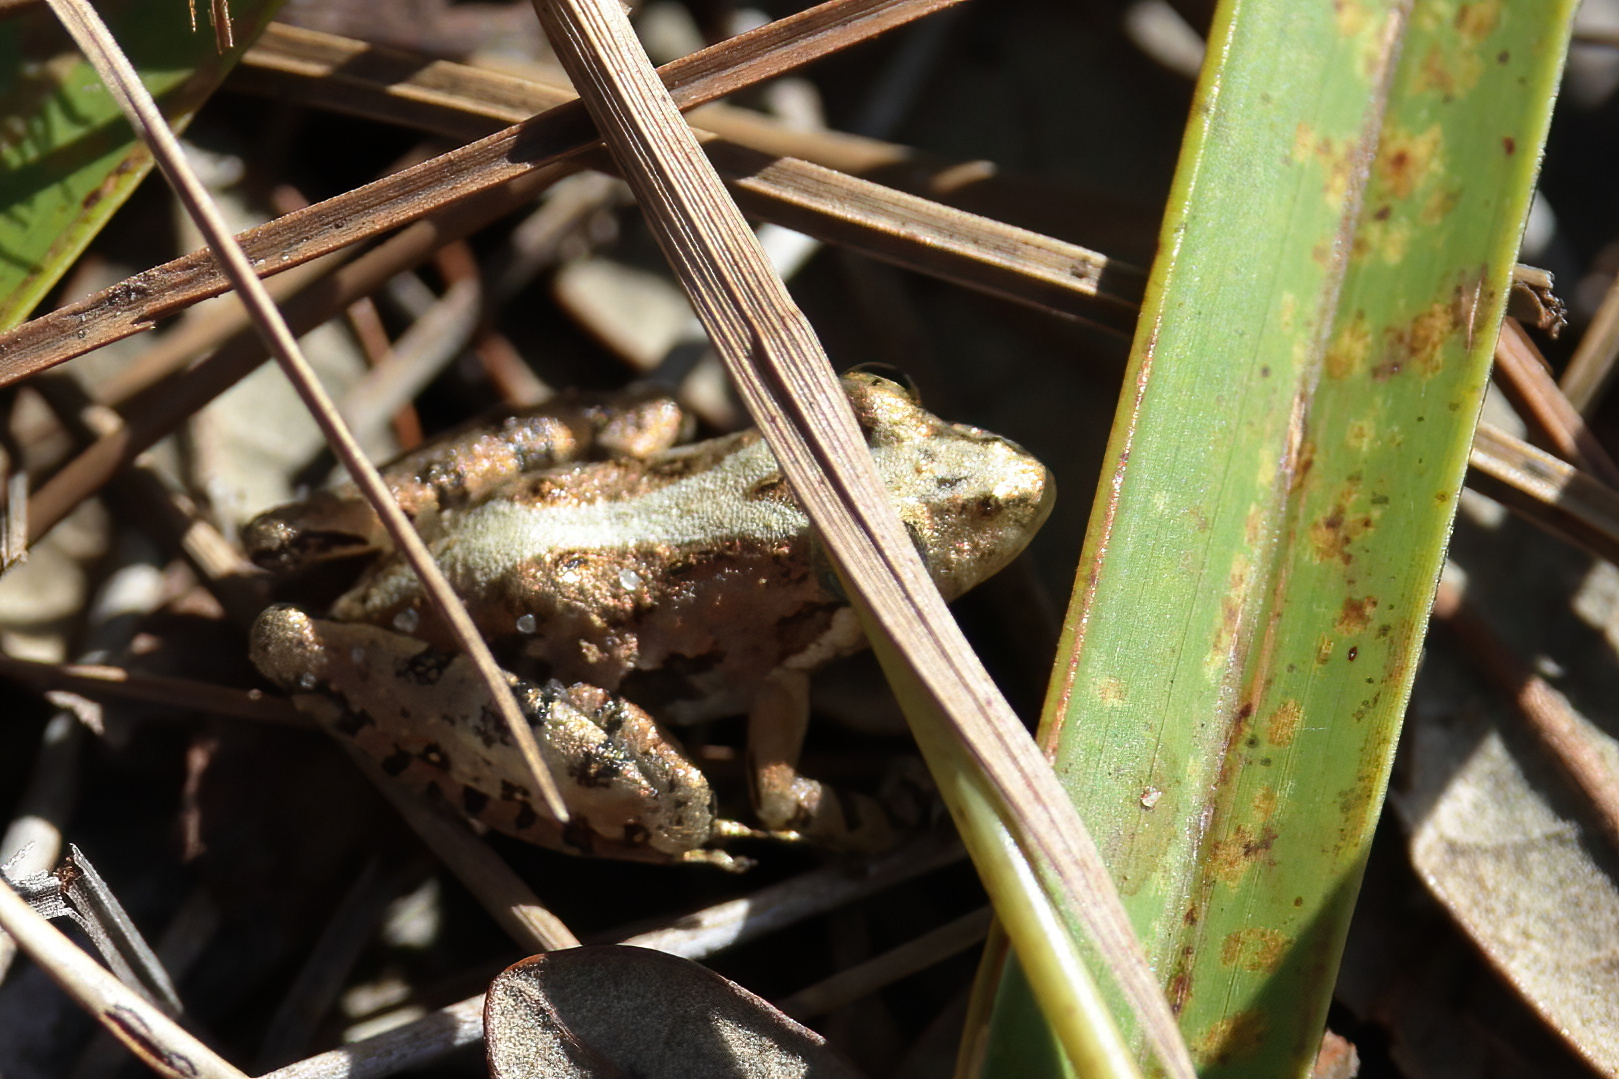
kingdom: Animalia
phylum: Chordata
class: Amphibia
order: Anura
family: Hylidae
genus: Acris
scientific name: Acris gryllus
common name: Southern cricket frog
